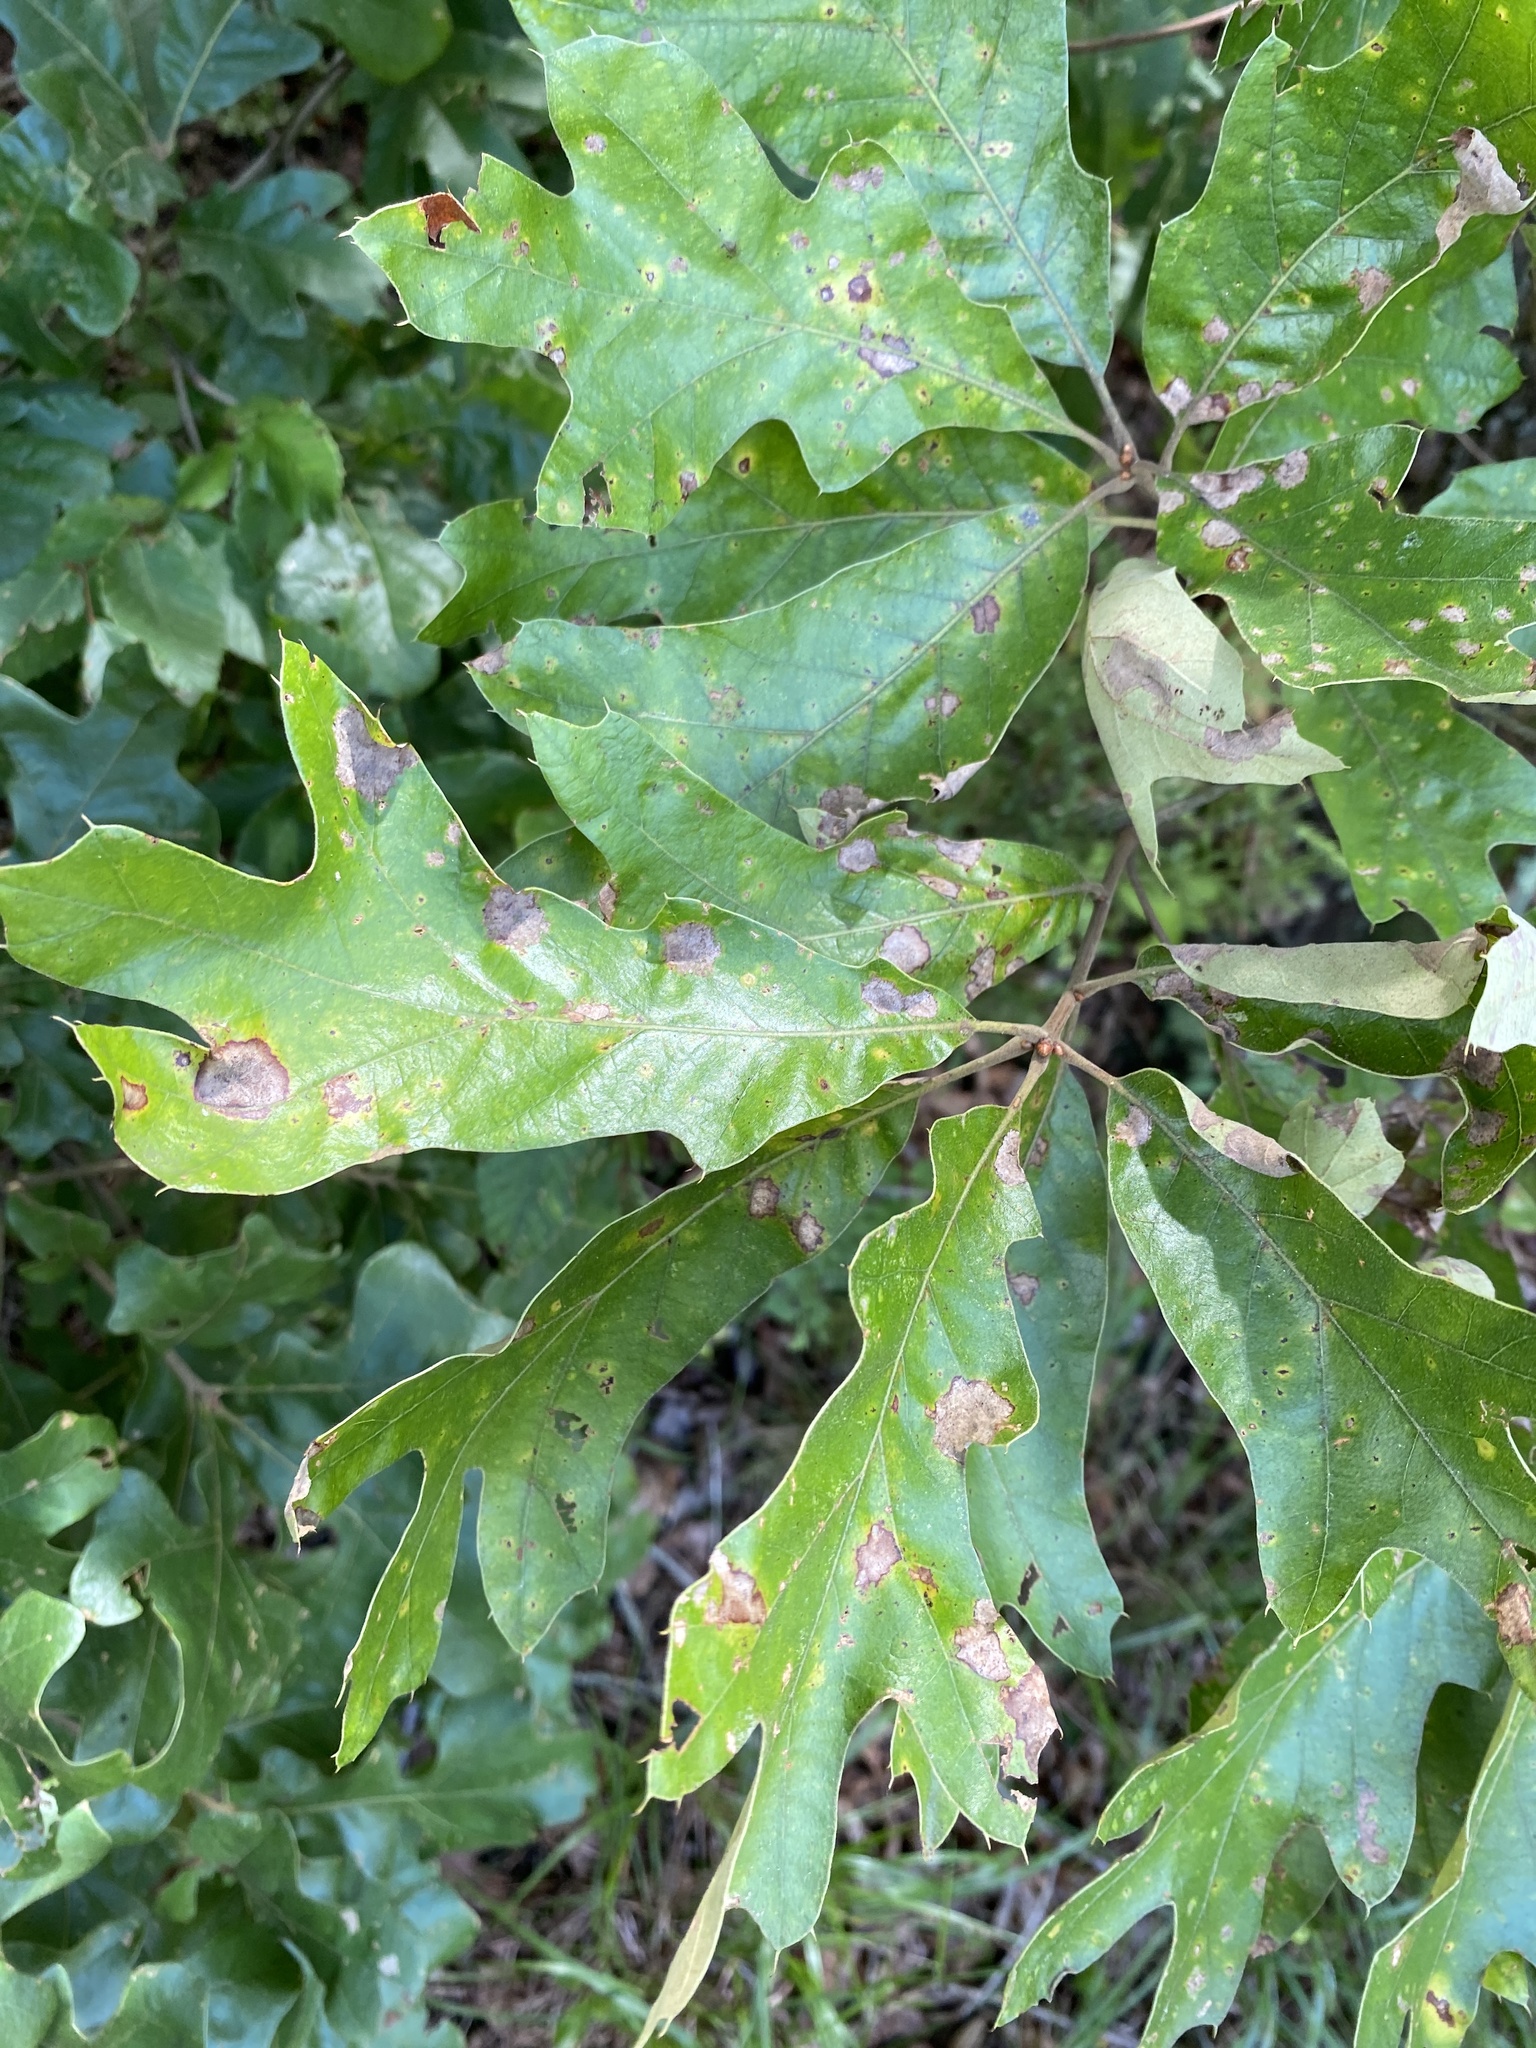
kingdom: Plantae
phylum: Tracheophyta
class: Magnoliopsida
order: Fagales
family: Fagaceae
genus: Quercus
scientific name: Quercus falcata
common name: Southern red oak
